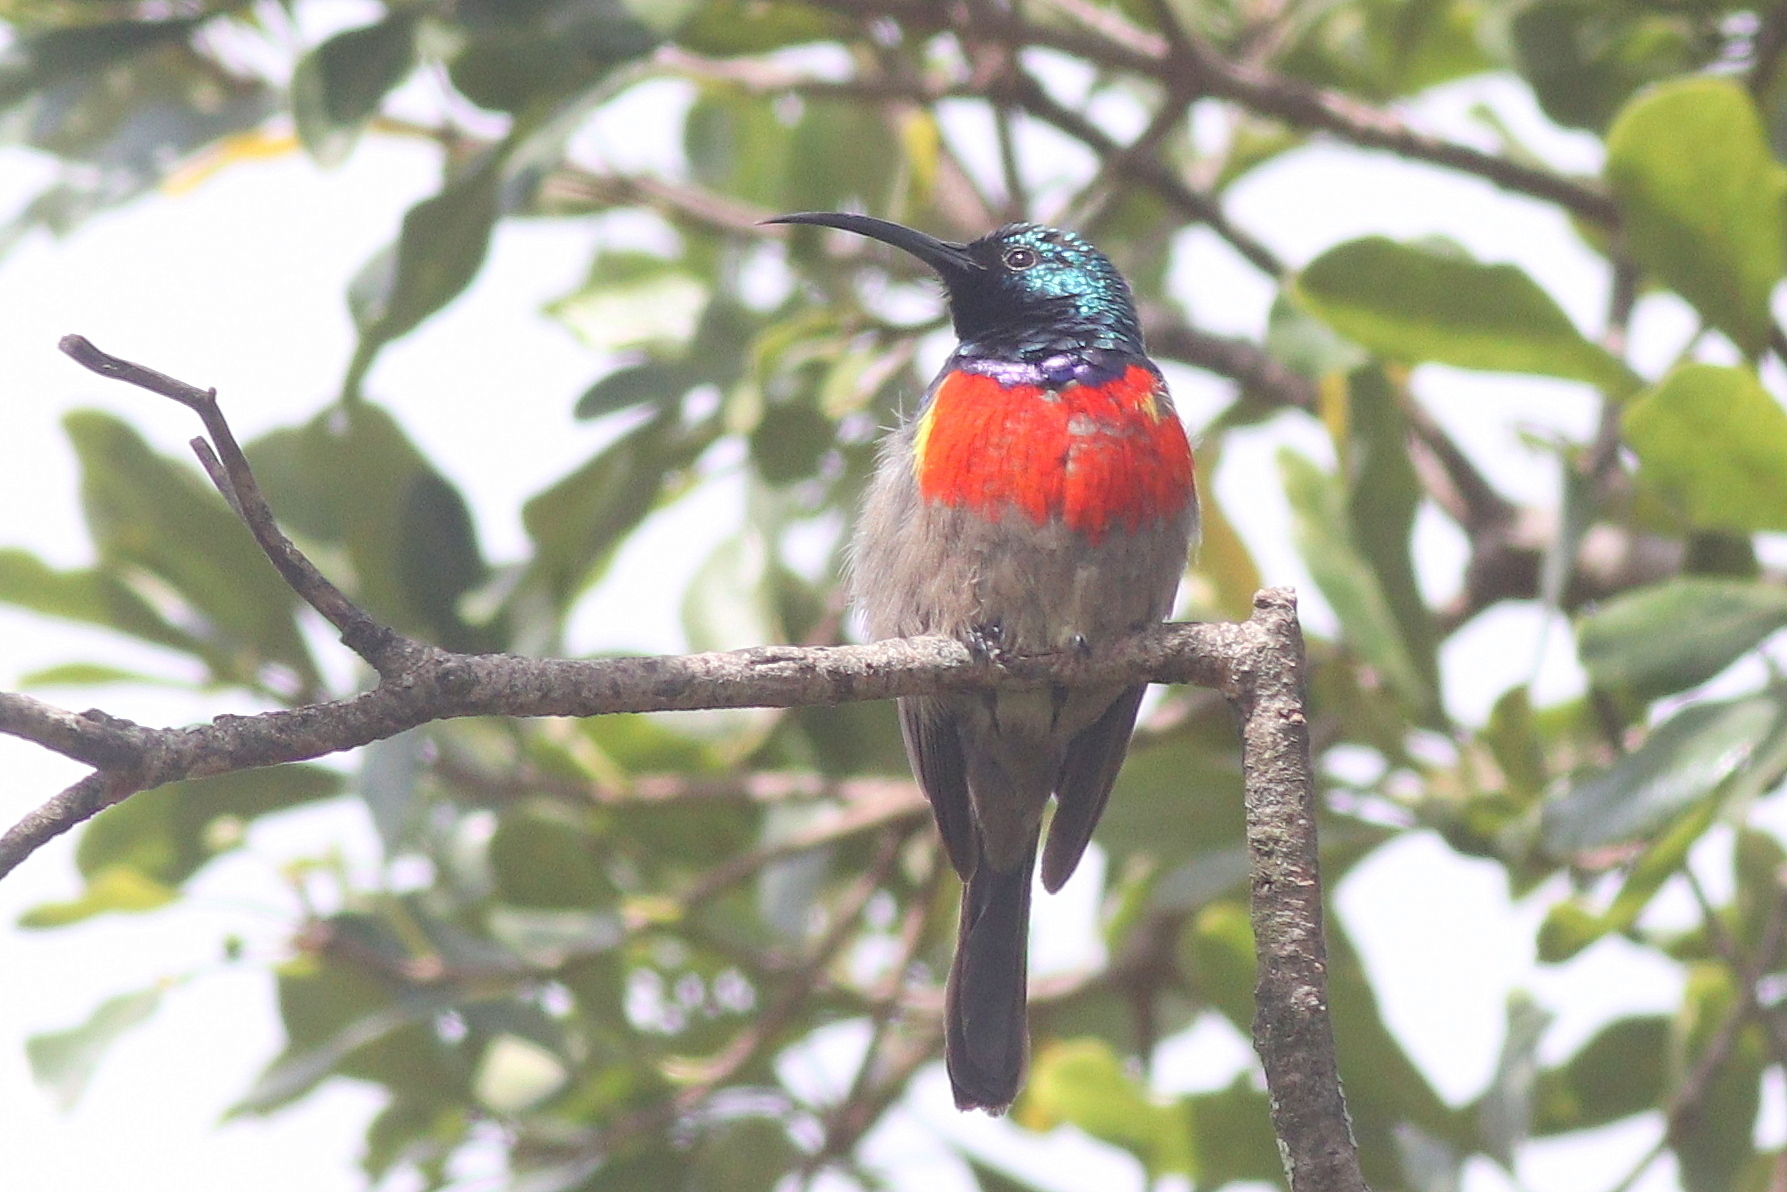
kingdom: Animalia
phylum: Chordata
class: Aves
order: Passeriformes
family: Nectariniidae
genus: Cinnyris
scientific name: Cinnyris afer
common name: Greater double-collared sunbird
